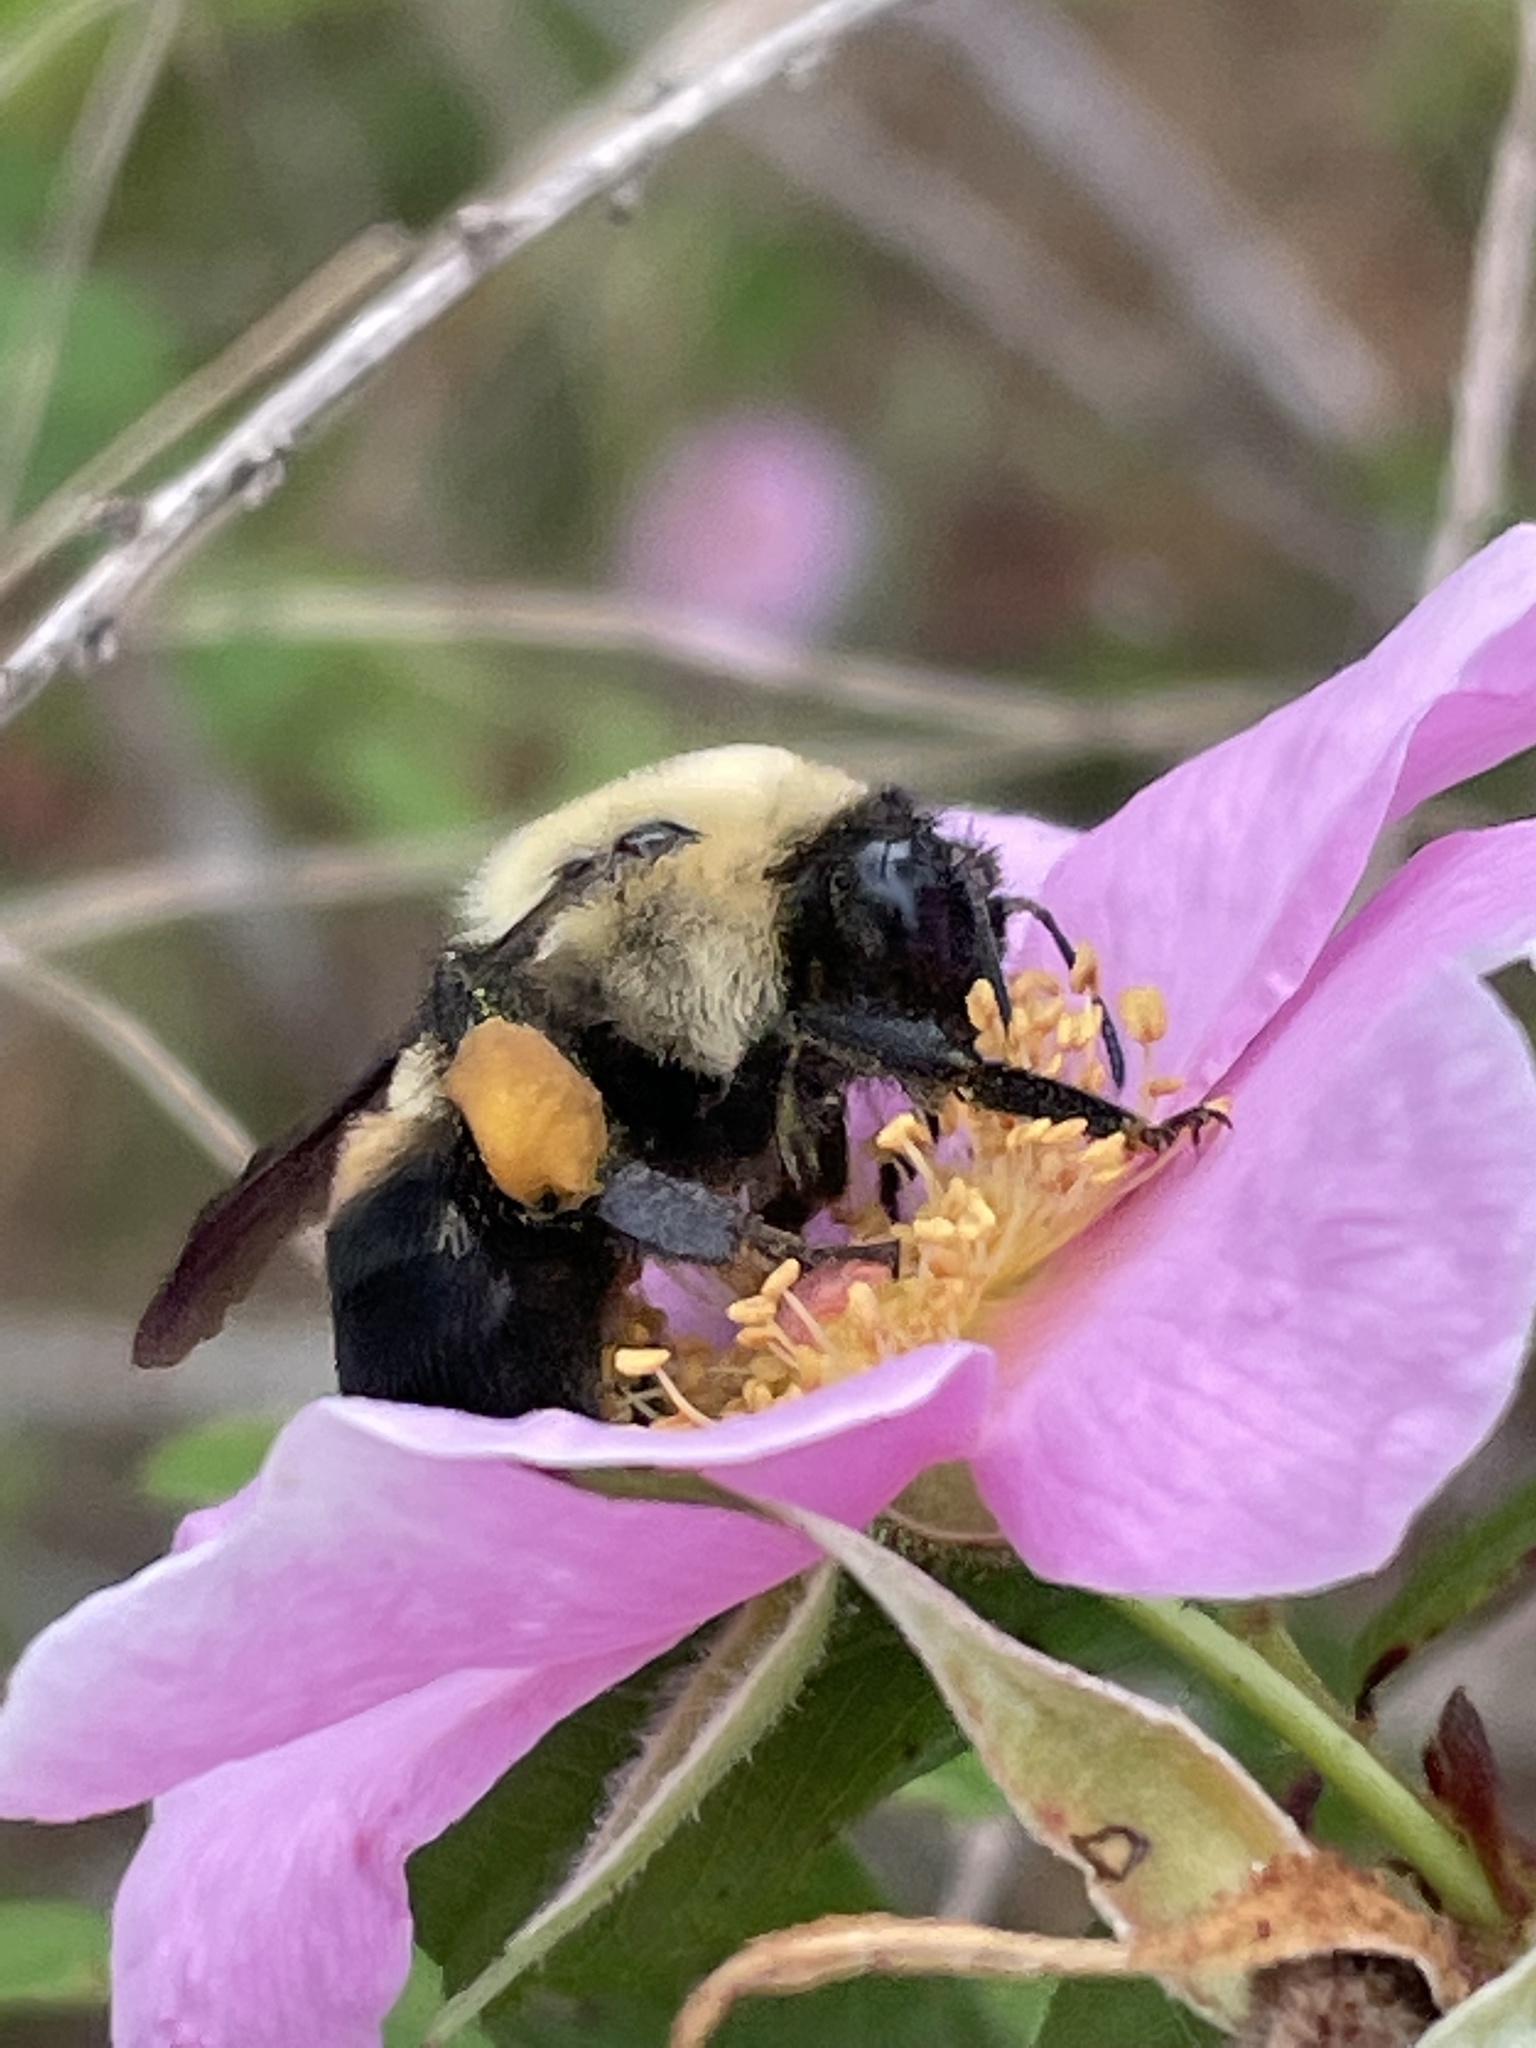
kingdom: Animalia
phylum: Arthropoda
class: Insecta
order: Hymenoptera
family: Apidae
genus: Bombus
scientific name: Bombus griseocollis
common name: Brown-belted bumble bee
